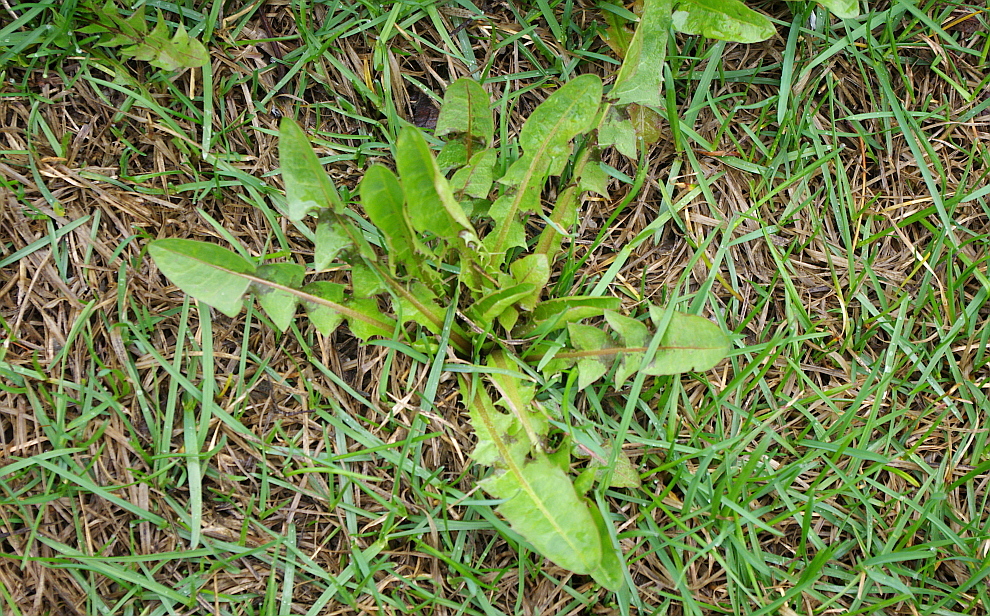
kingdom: Plantae
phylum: Tracheophyta
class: Magnoliopsida
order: Asterales
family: Asteraceae
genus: Taraxacum
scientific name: Taraxacum officinale
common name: Common dandelion
